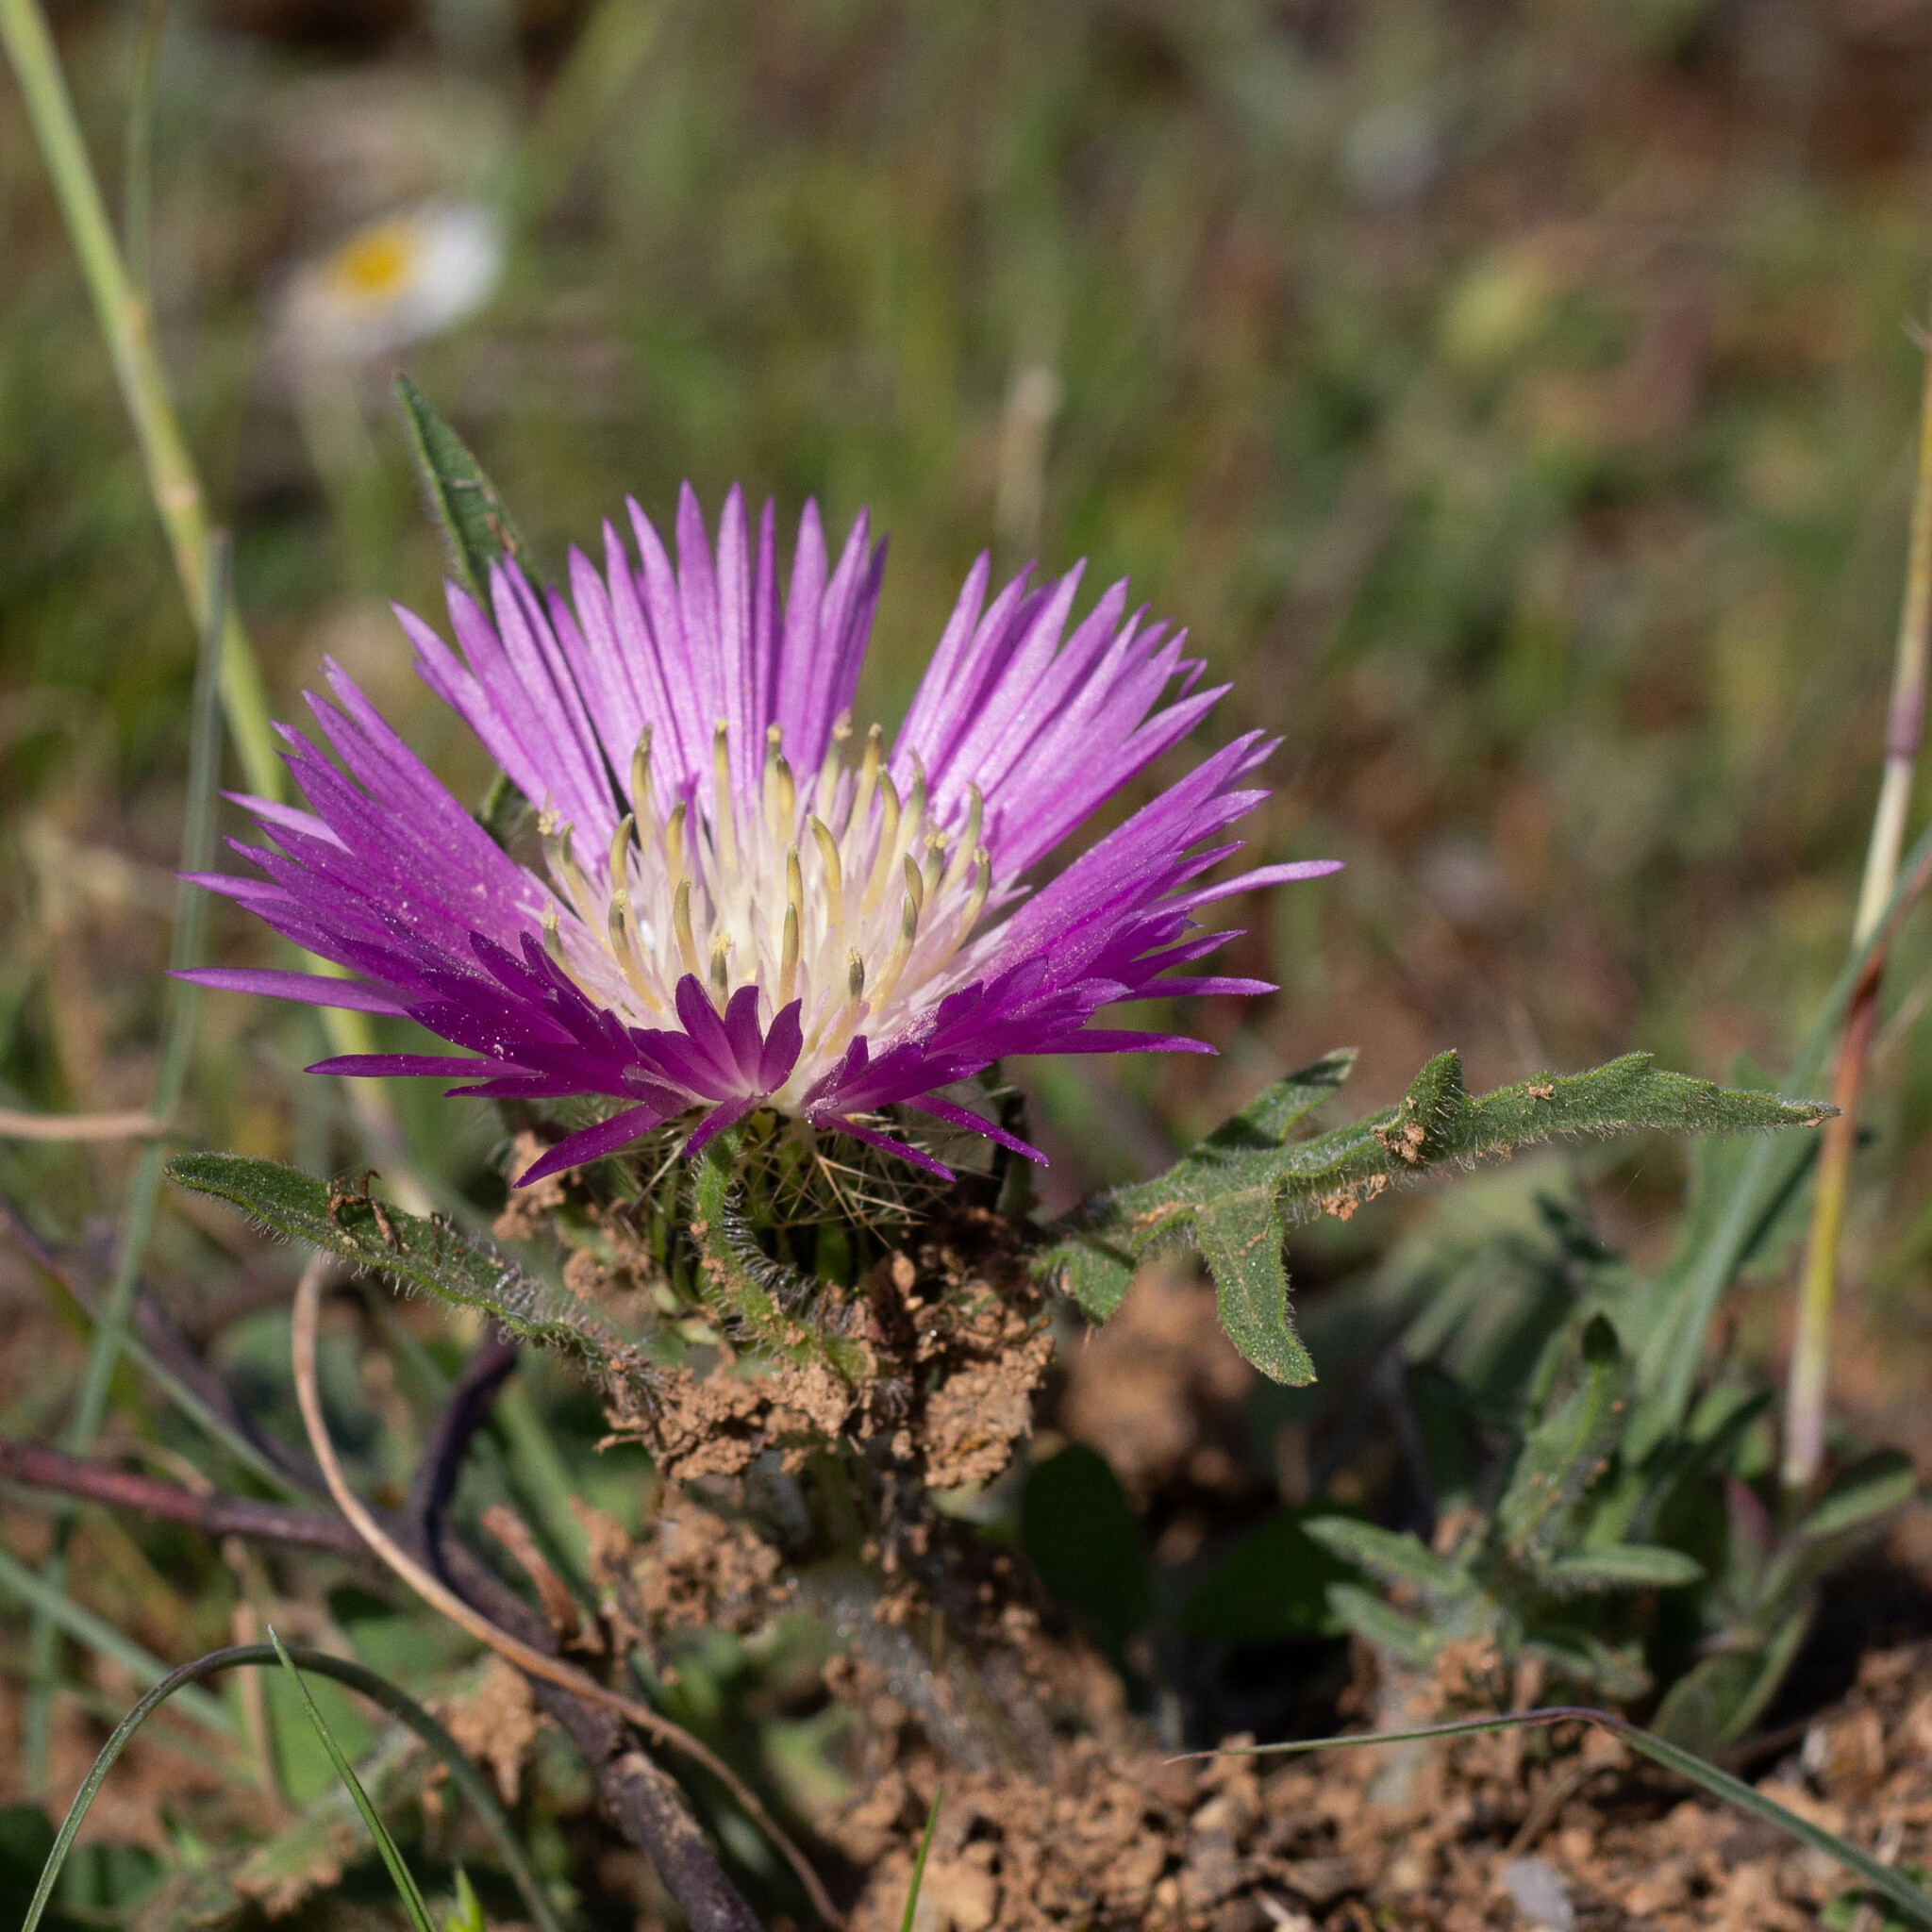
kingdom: Plantae
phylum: Tracheophyta
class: Magnoliopsida
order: Asterales
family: Asteraceae
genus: Centaurea
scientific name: Centaurea pullata
